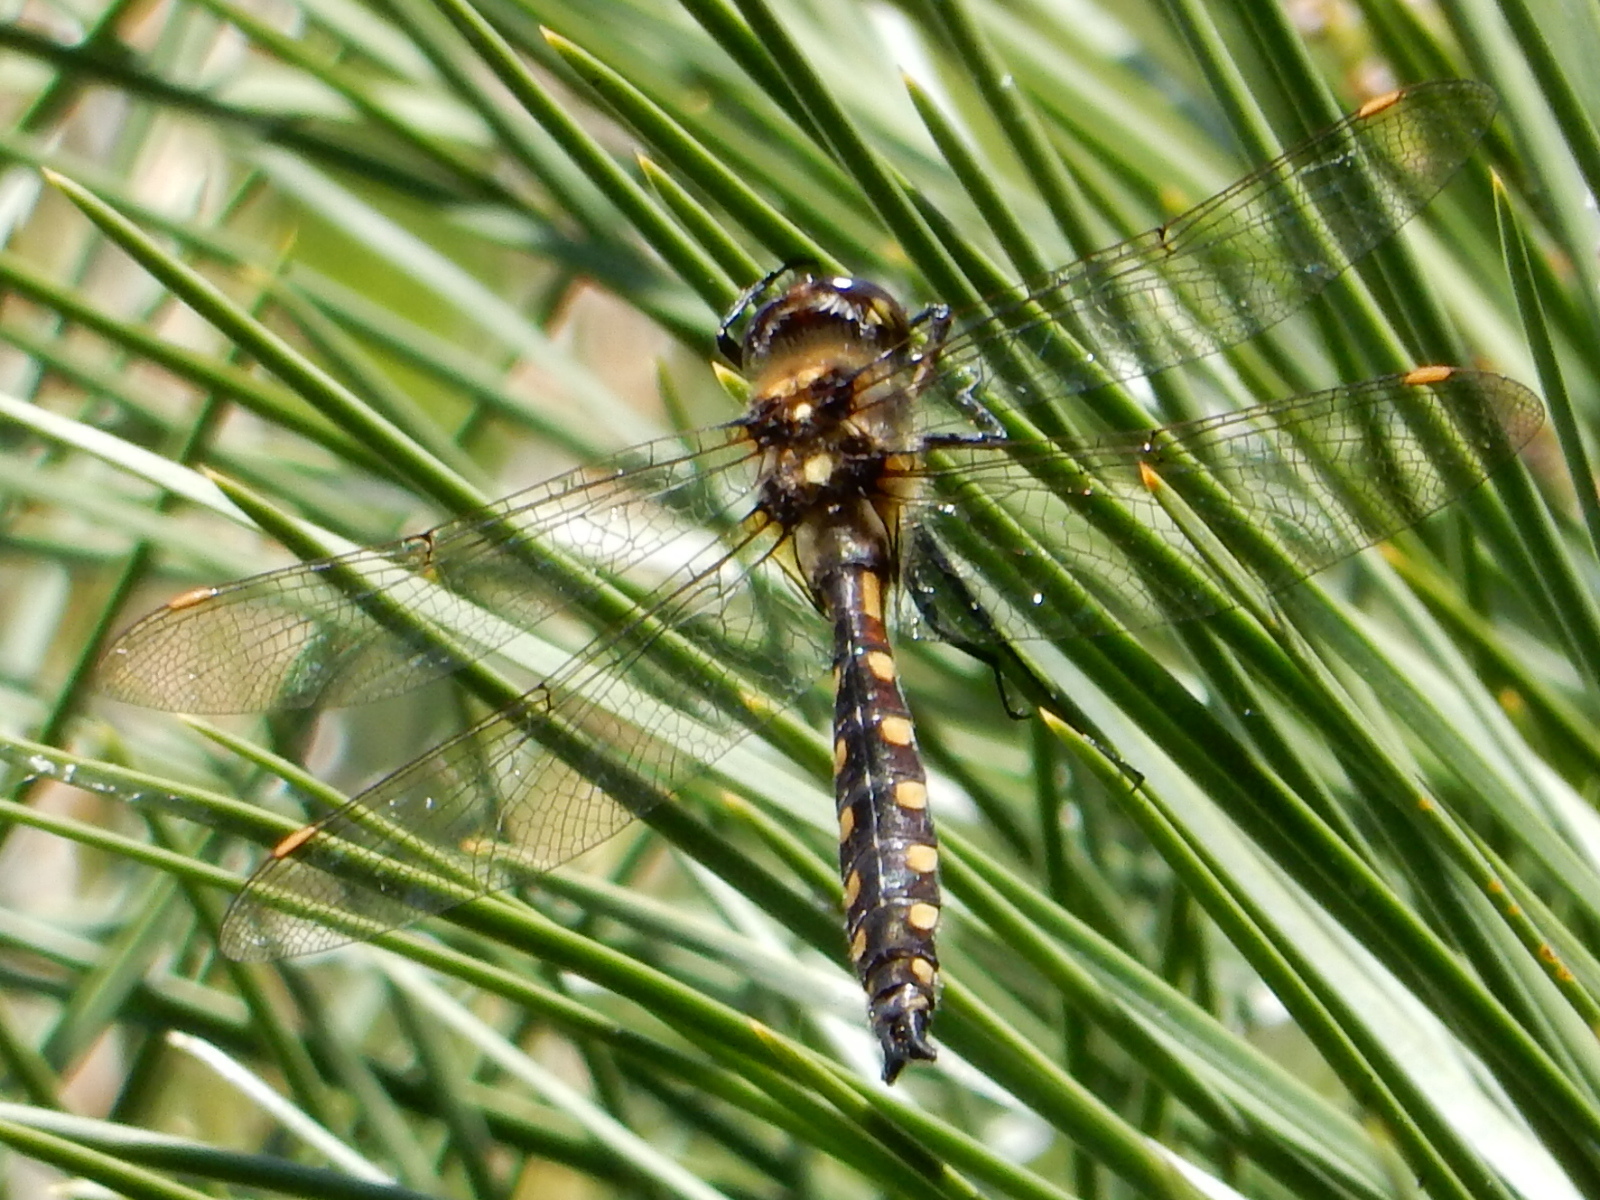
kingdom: Animalia
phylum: Arthropoda
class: Insecta
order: Odonata
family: Corduliidae
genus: Procordulia
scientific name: Procordulia grayi
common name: Yellow spotted dragonfly
